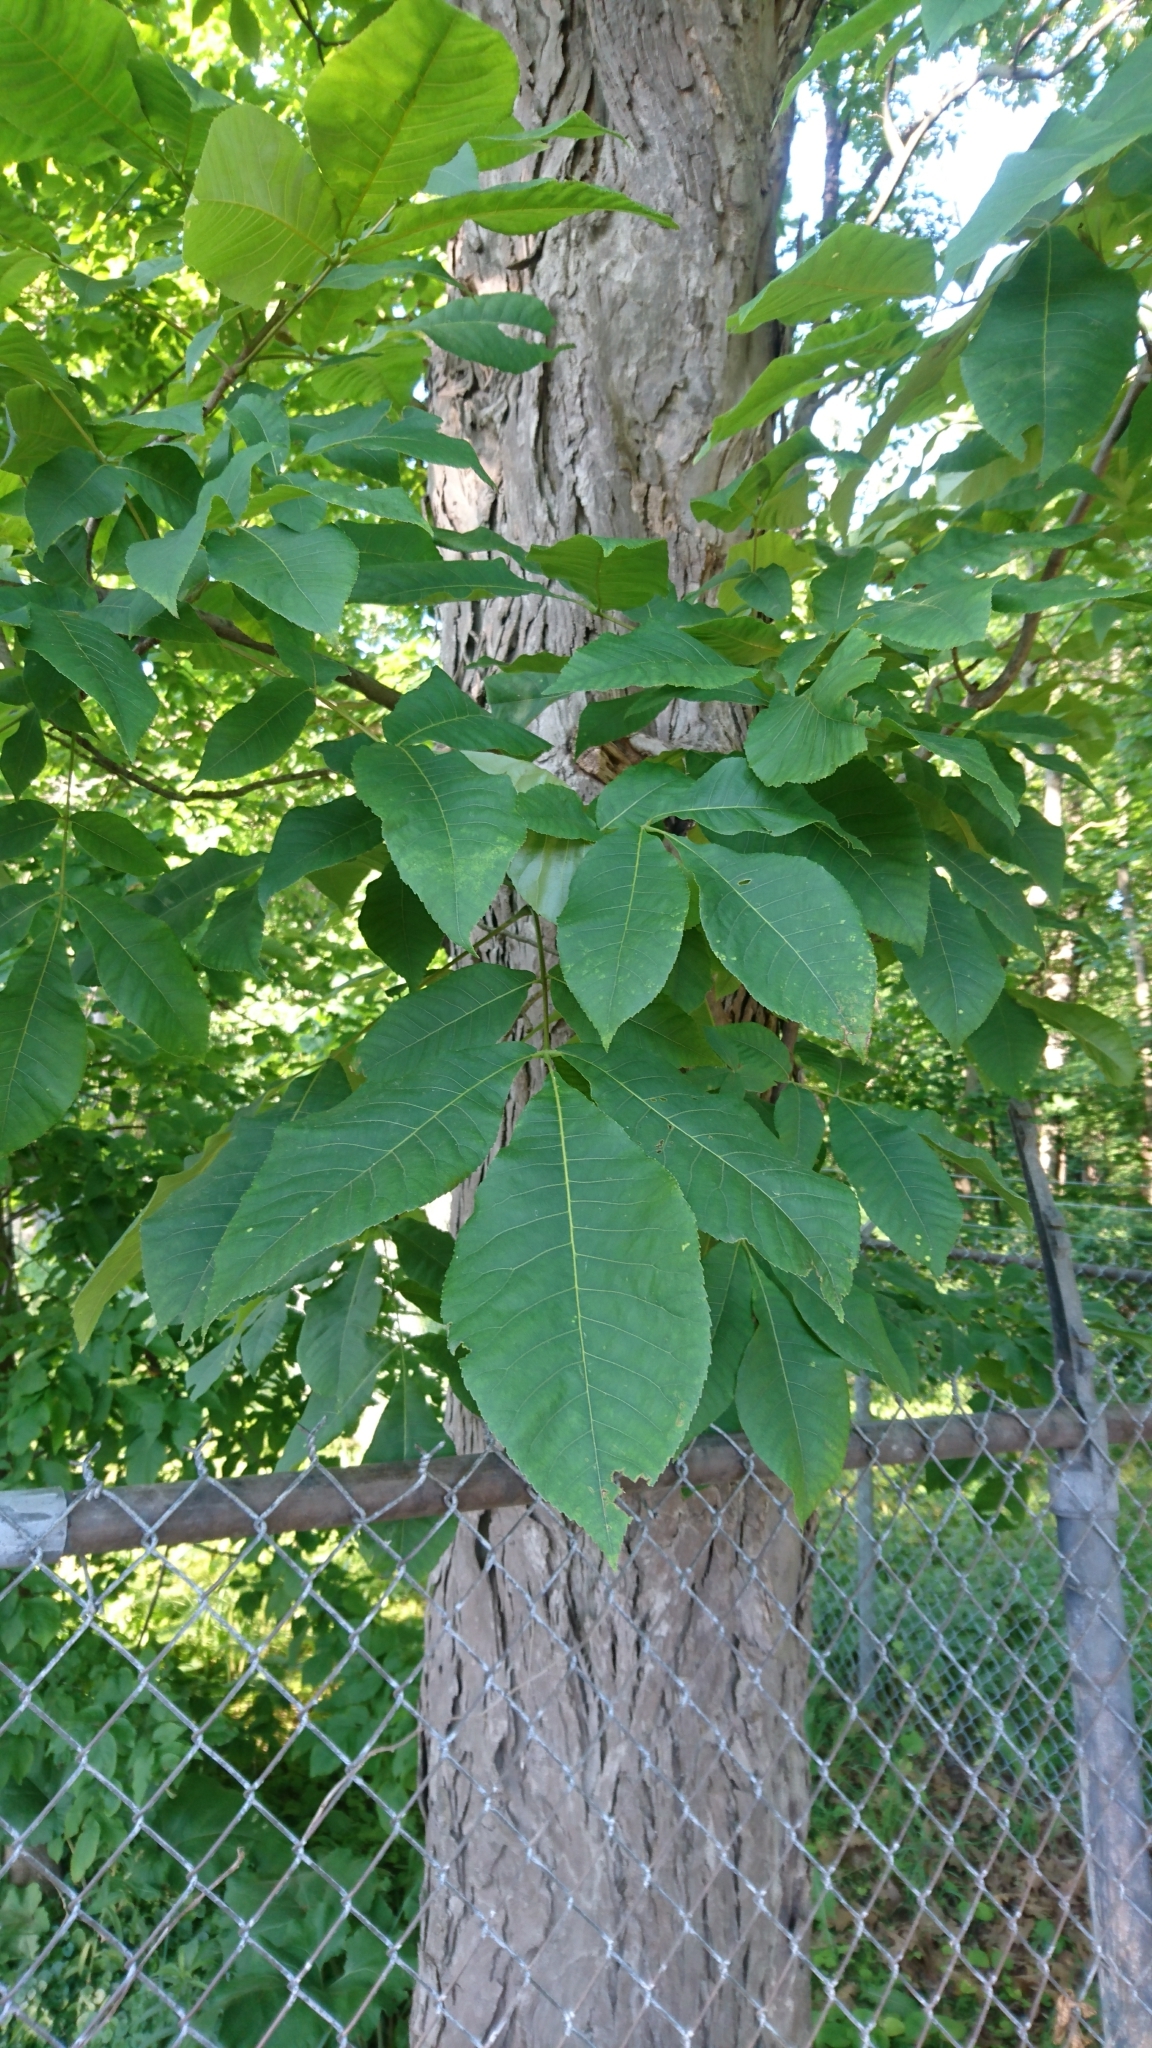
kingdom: Plantae
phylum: Tracheophyta
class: Magnoliopsida
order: Fagales
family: Juglandaceae
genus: Carya
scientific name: Carya ovata
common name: Shagbark hickory
